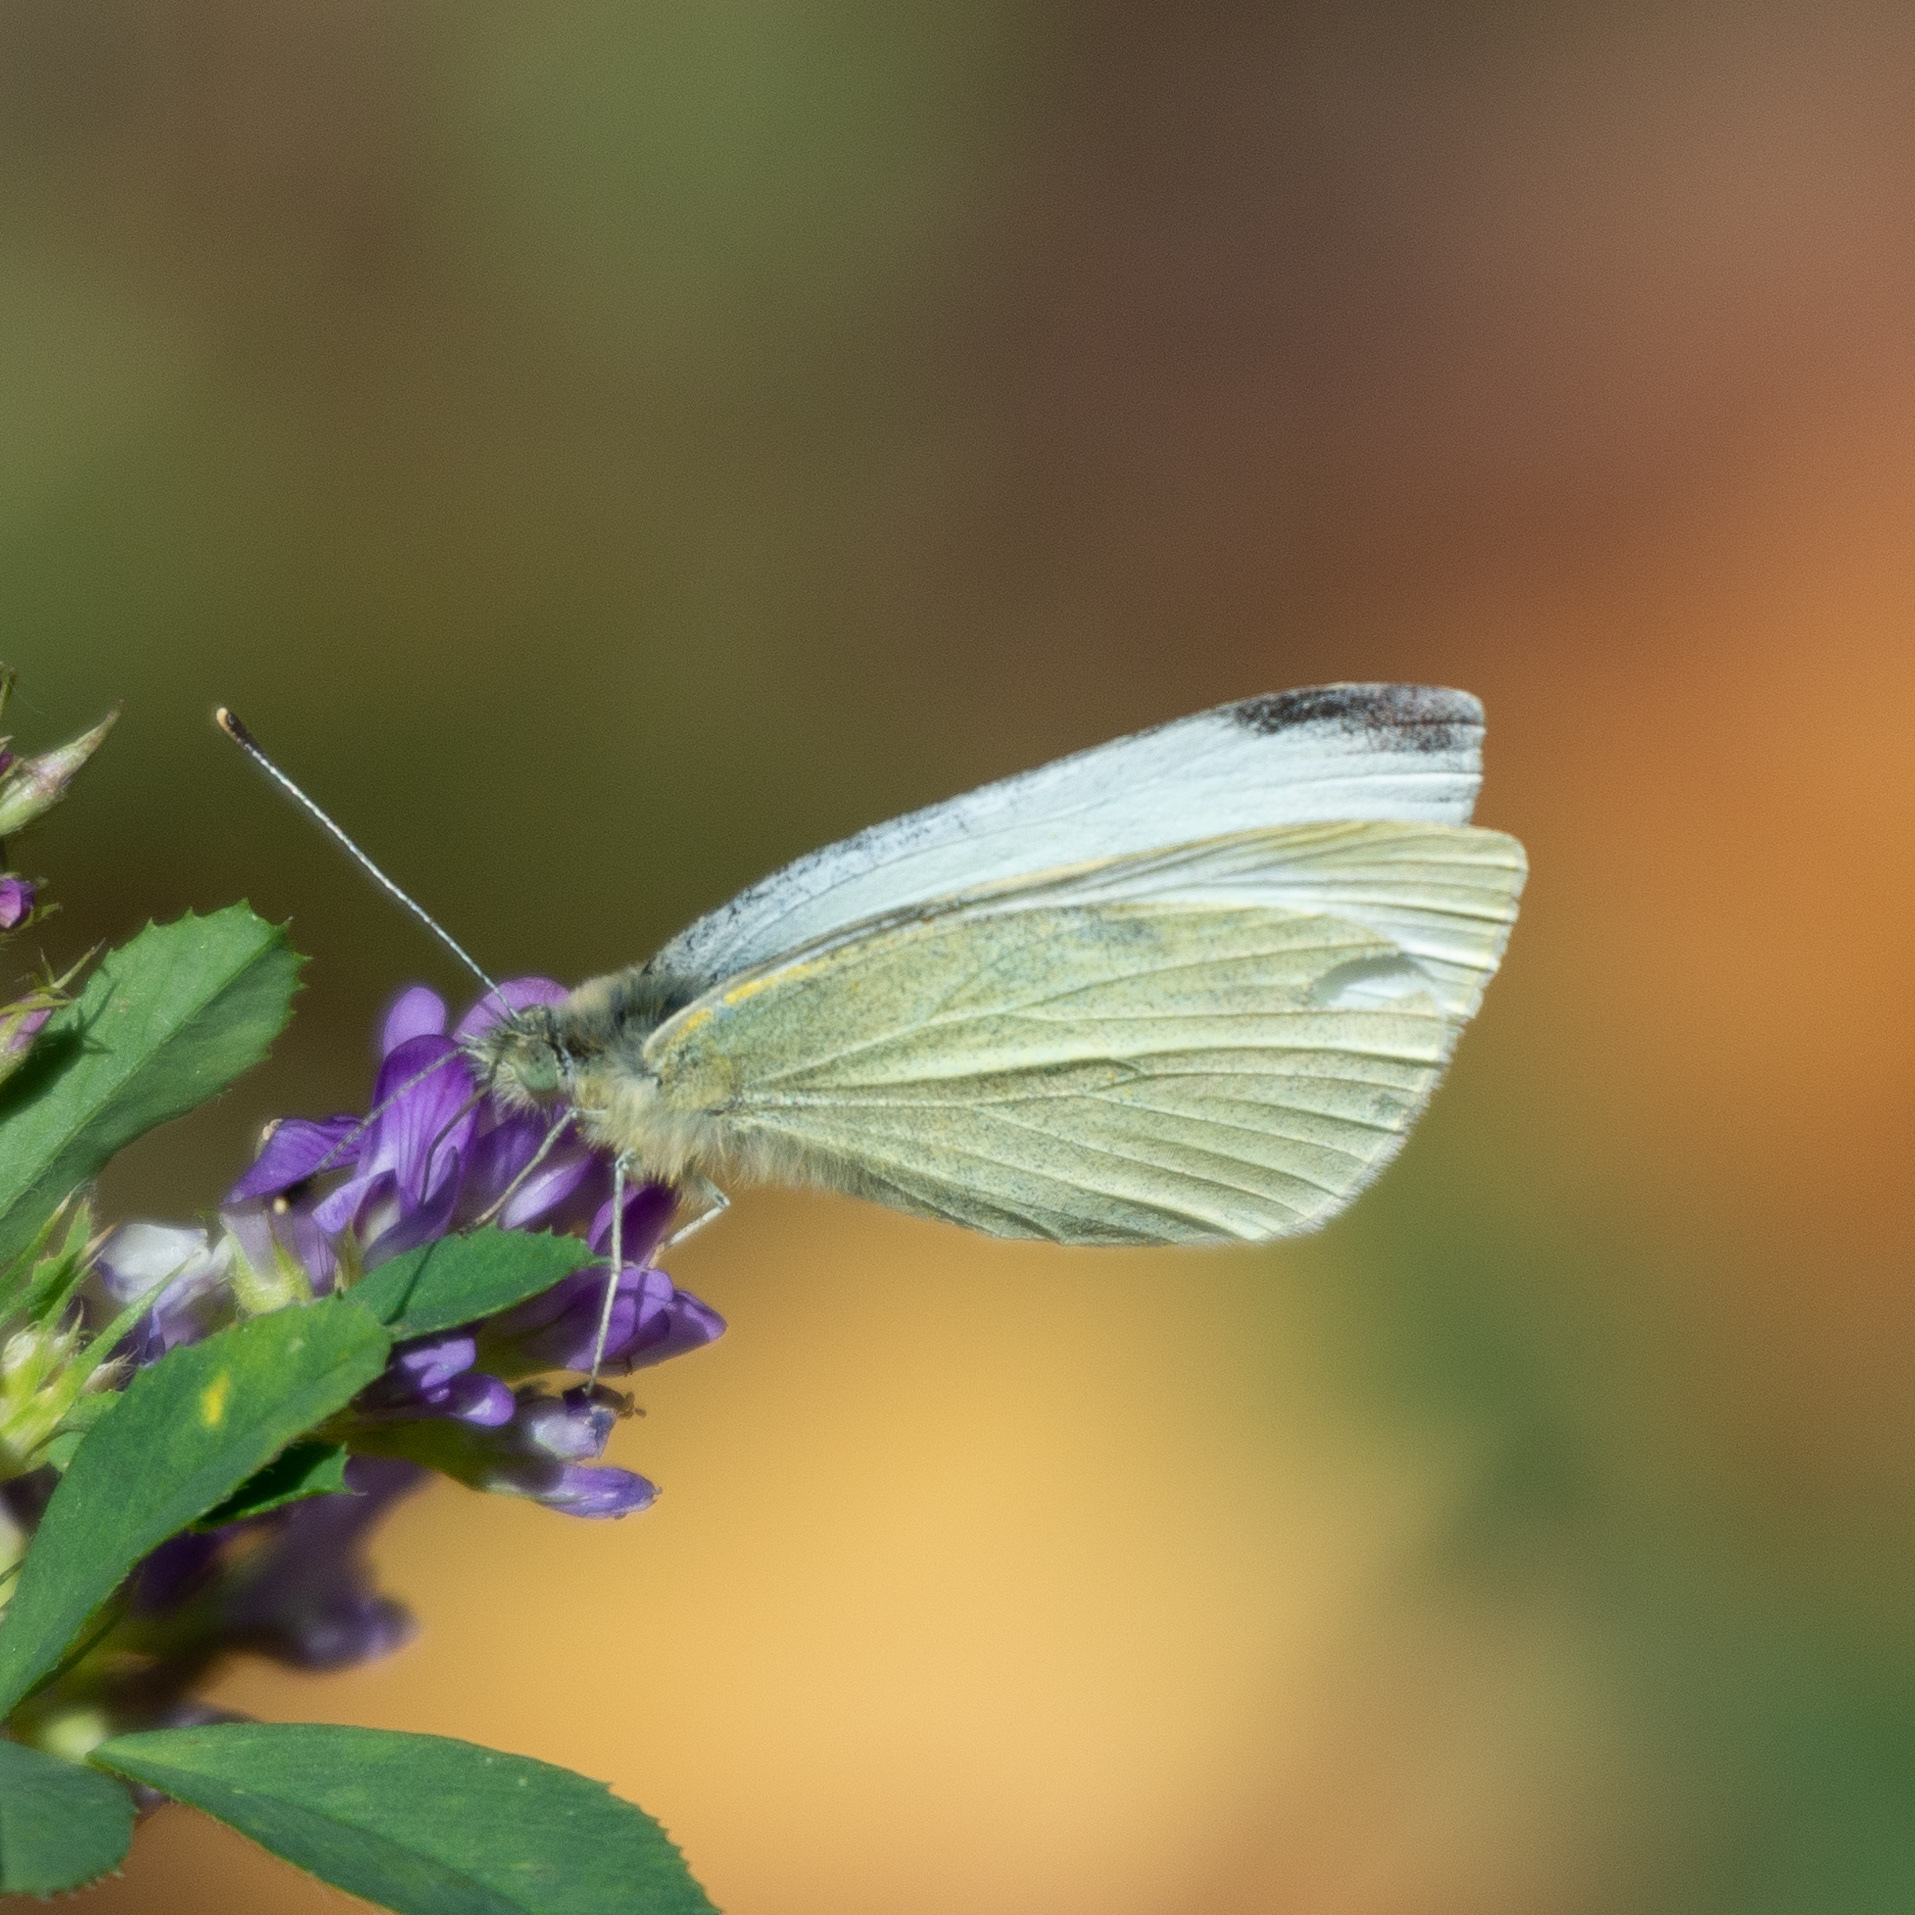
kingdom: Animalia
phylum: Arthropoda
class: Insecta
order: Lepidoptera
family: Pieridae
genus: Pieris
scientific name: Pieris rapae
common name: Small white
